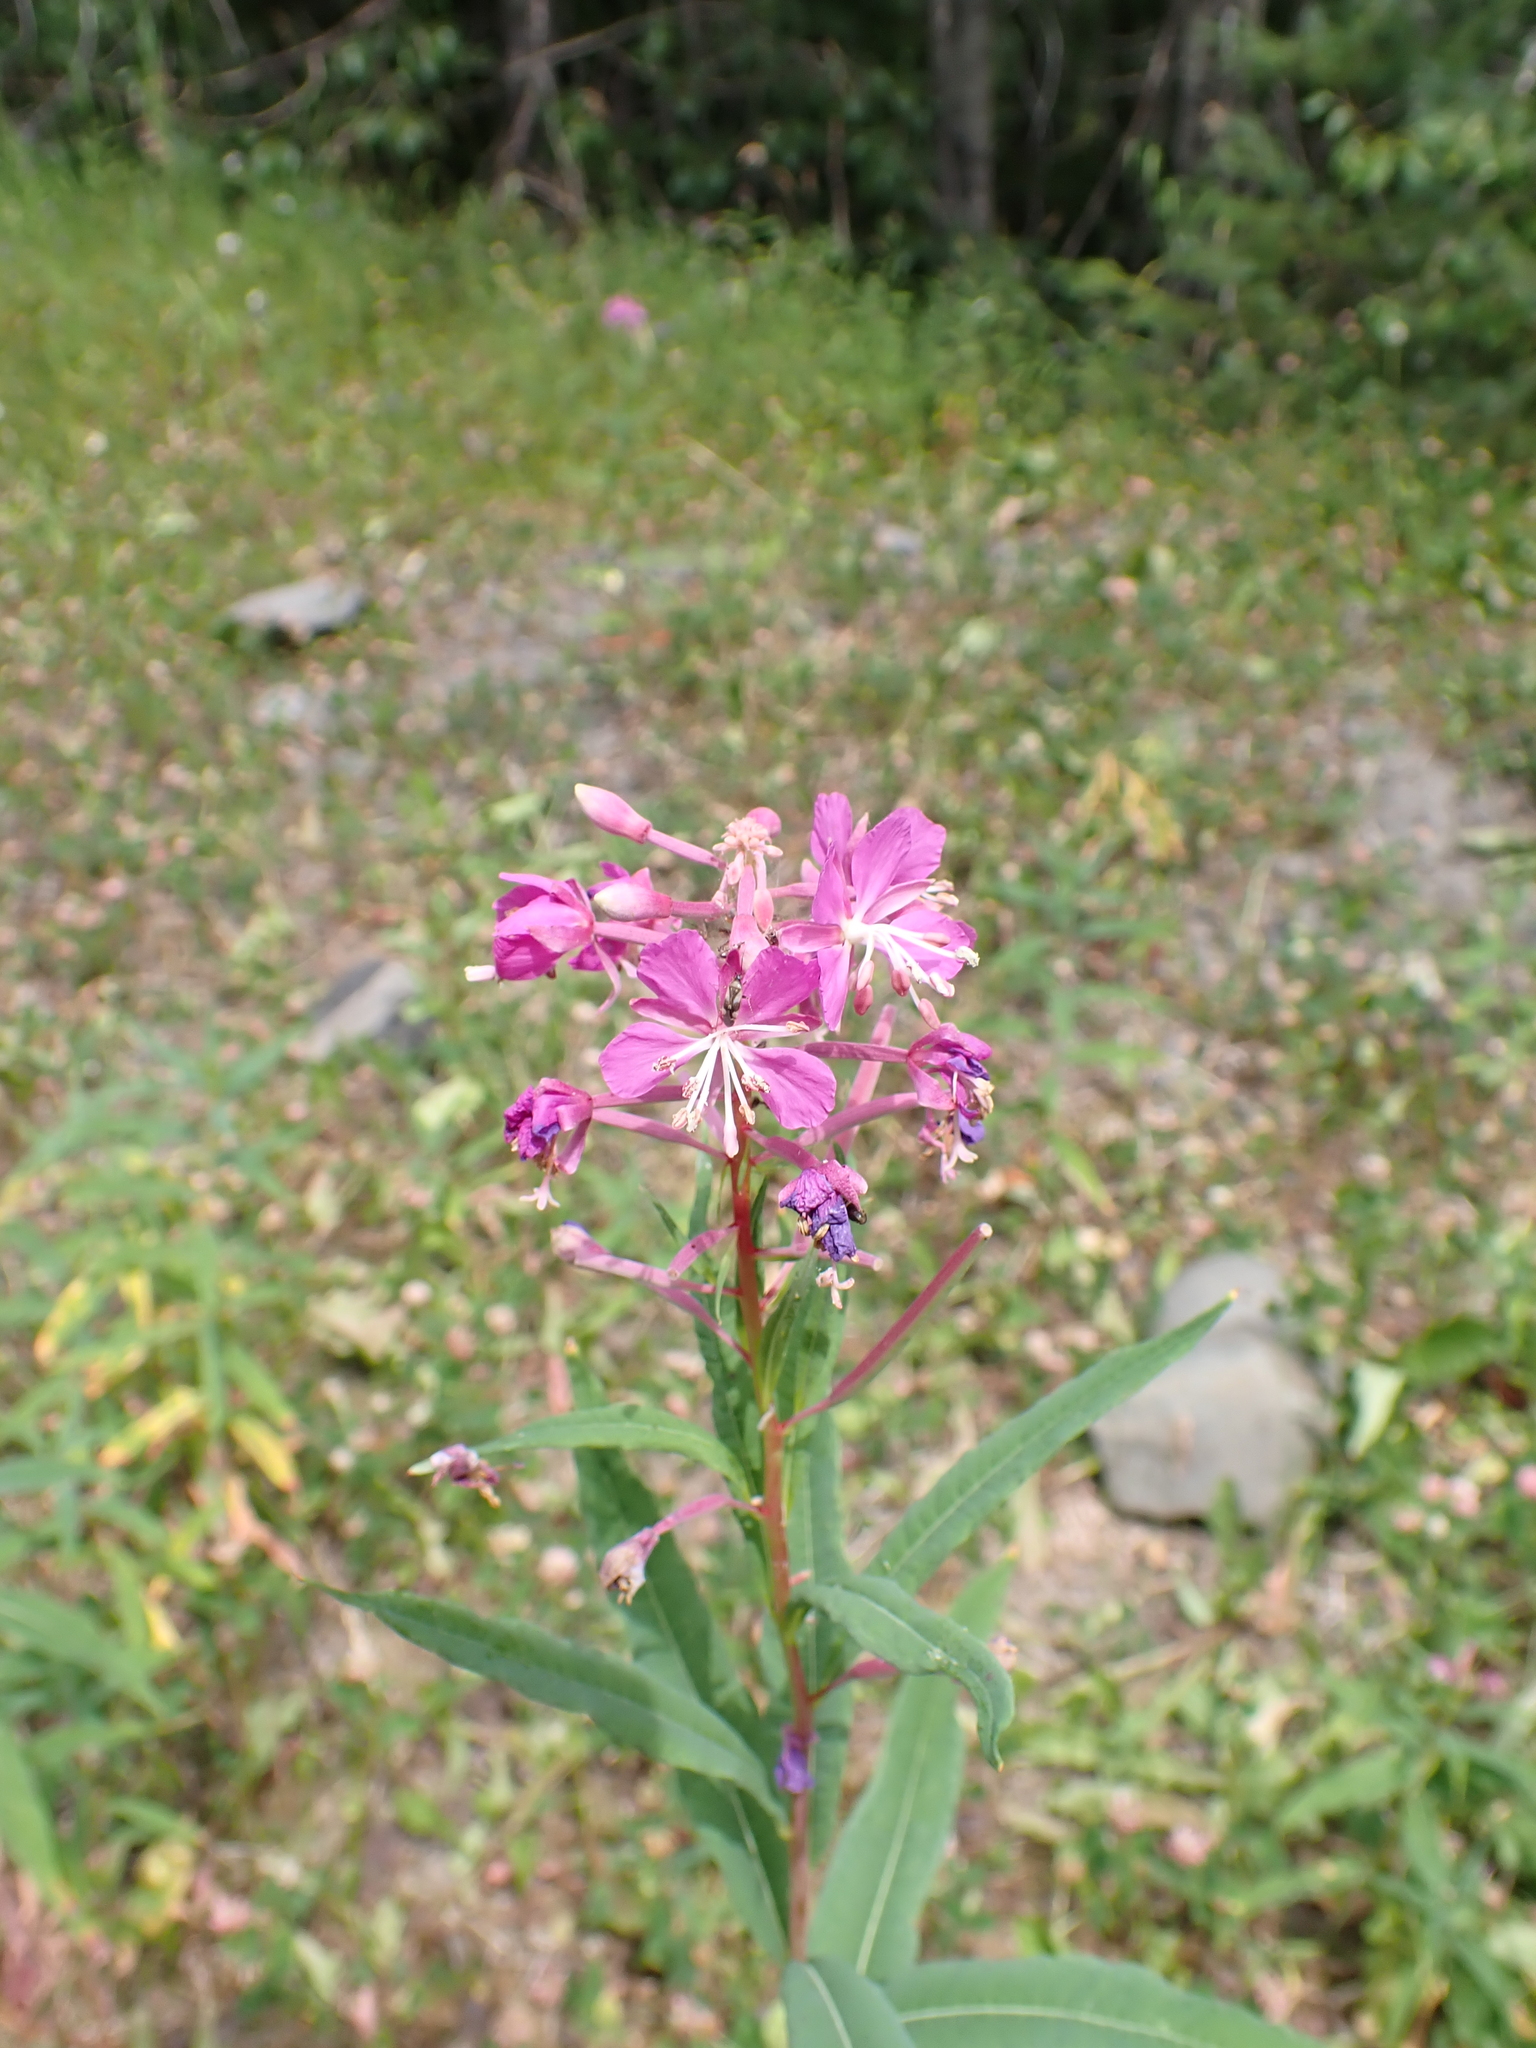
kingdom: Plantae
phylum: Tracheophyta
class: Magnoliopsida
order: Myrtales
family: Onagraceae
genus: Chamaenerion
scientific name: Chamaenerion angustifolium
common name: Fireweed
